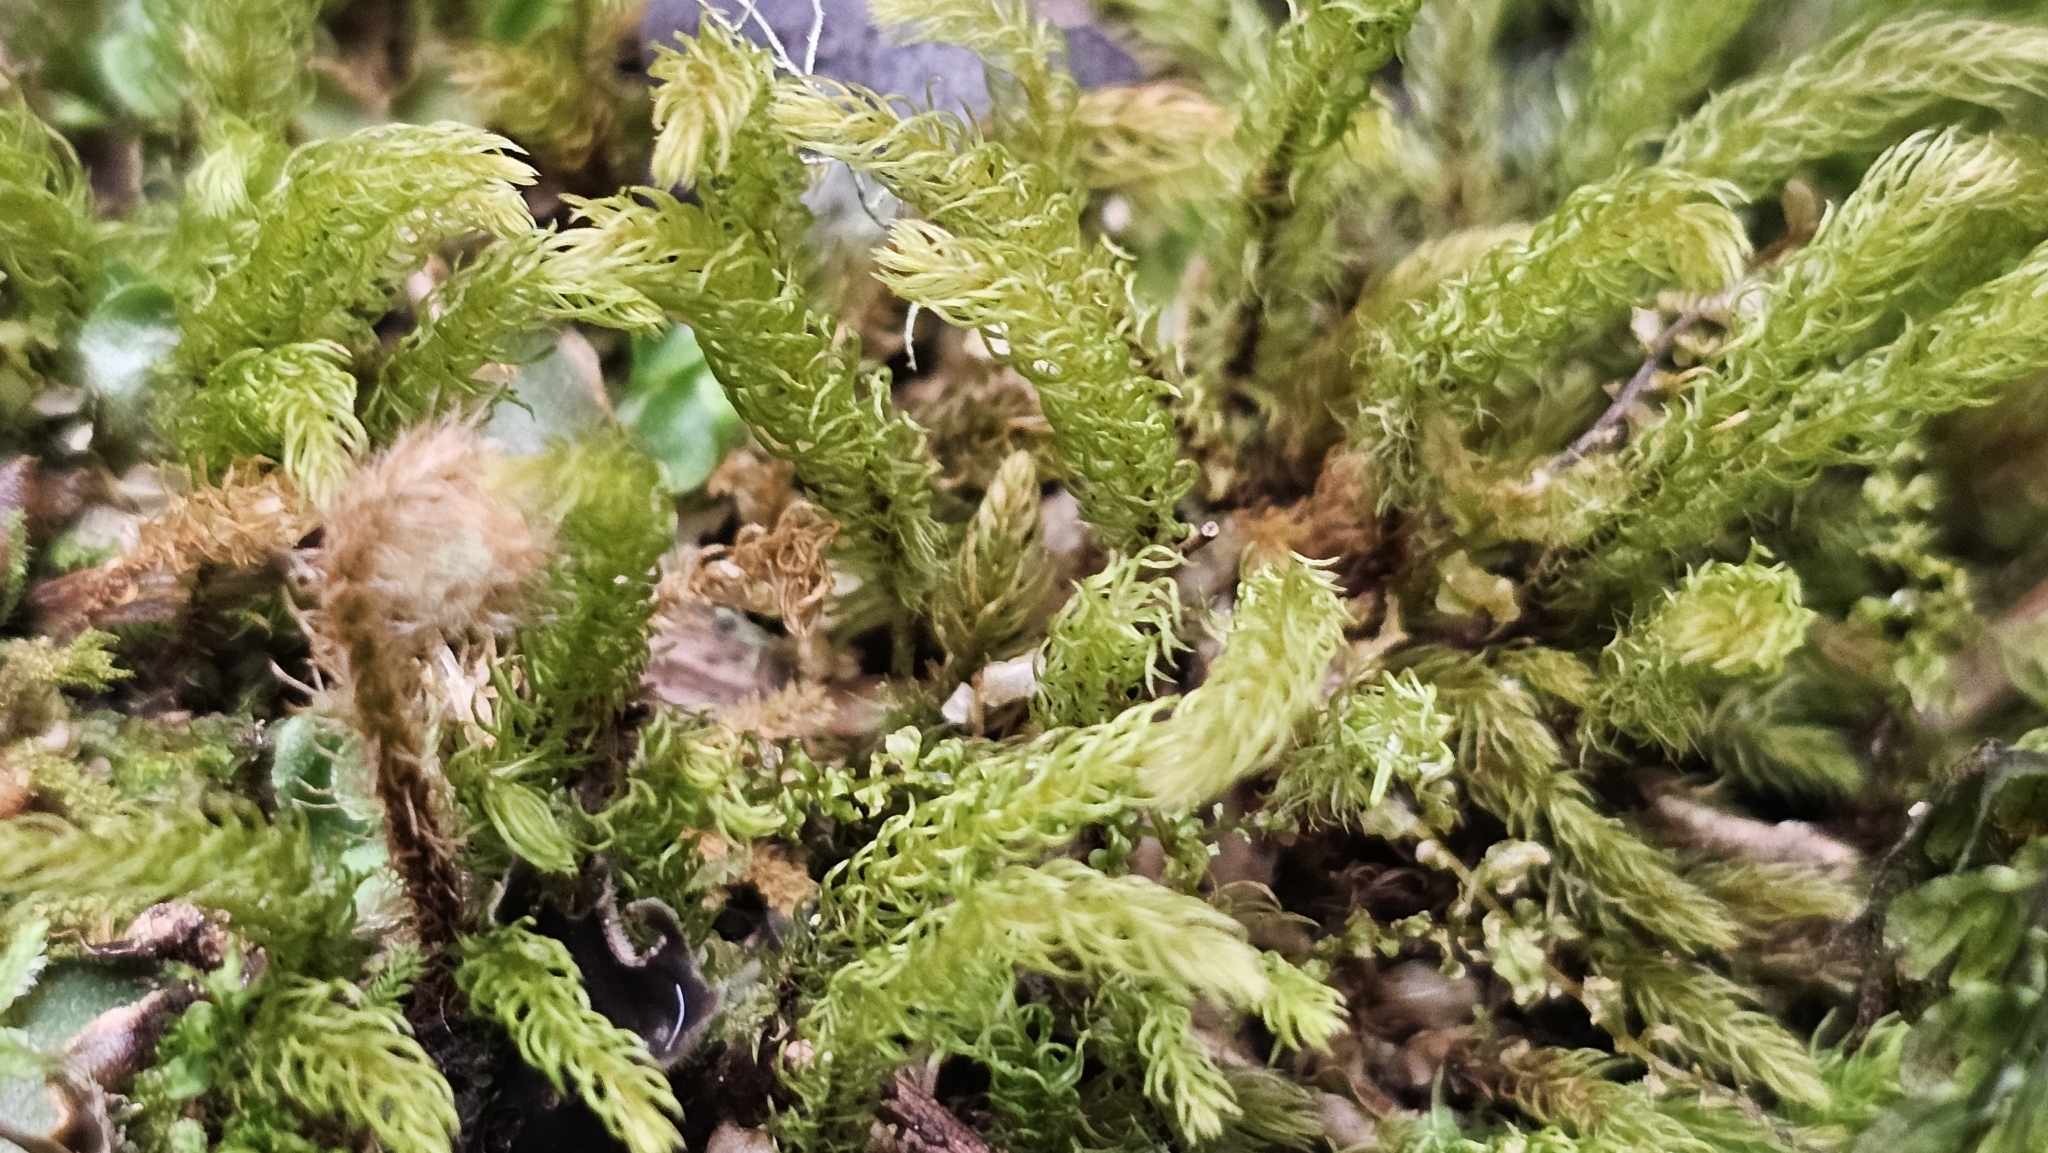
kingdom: Plantae
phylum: Bryophyta
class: Bryopsida
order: Aulacomniales
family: Aulacomniaceae
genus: Hymenodontopsis
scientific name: Hymenodontopsis mnioides
